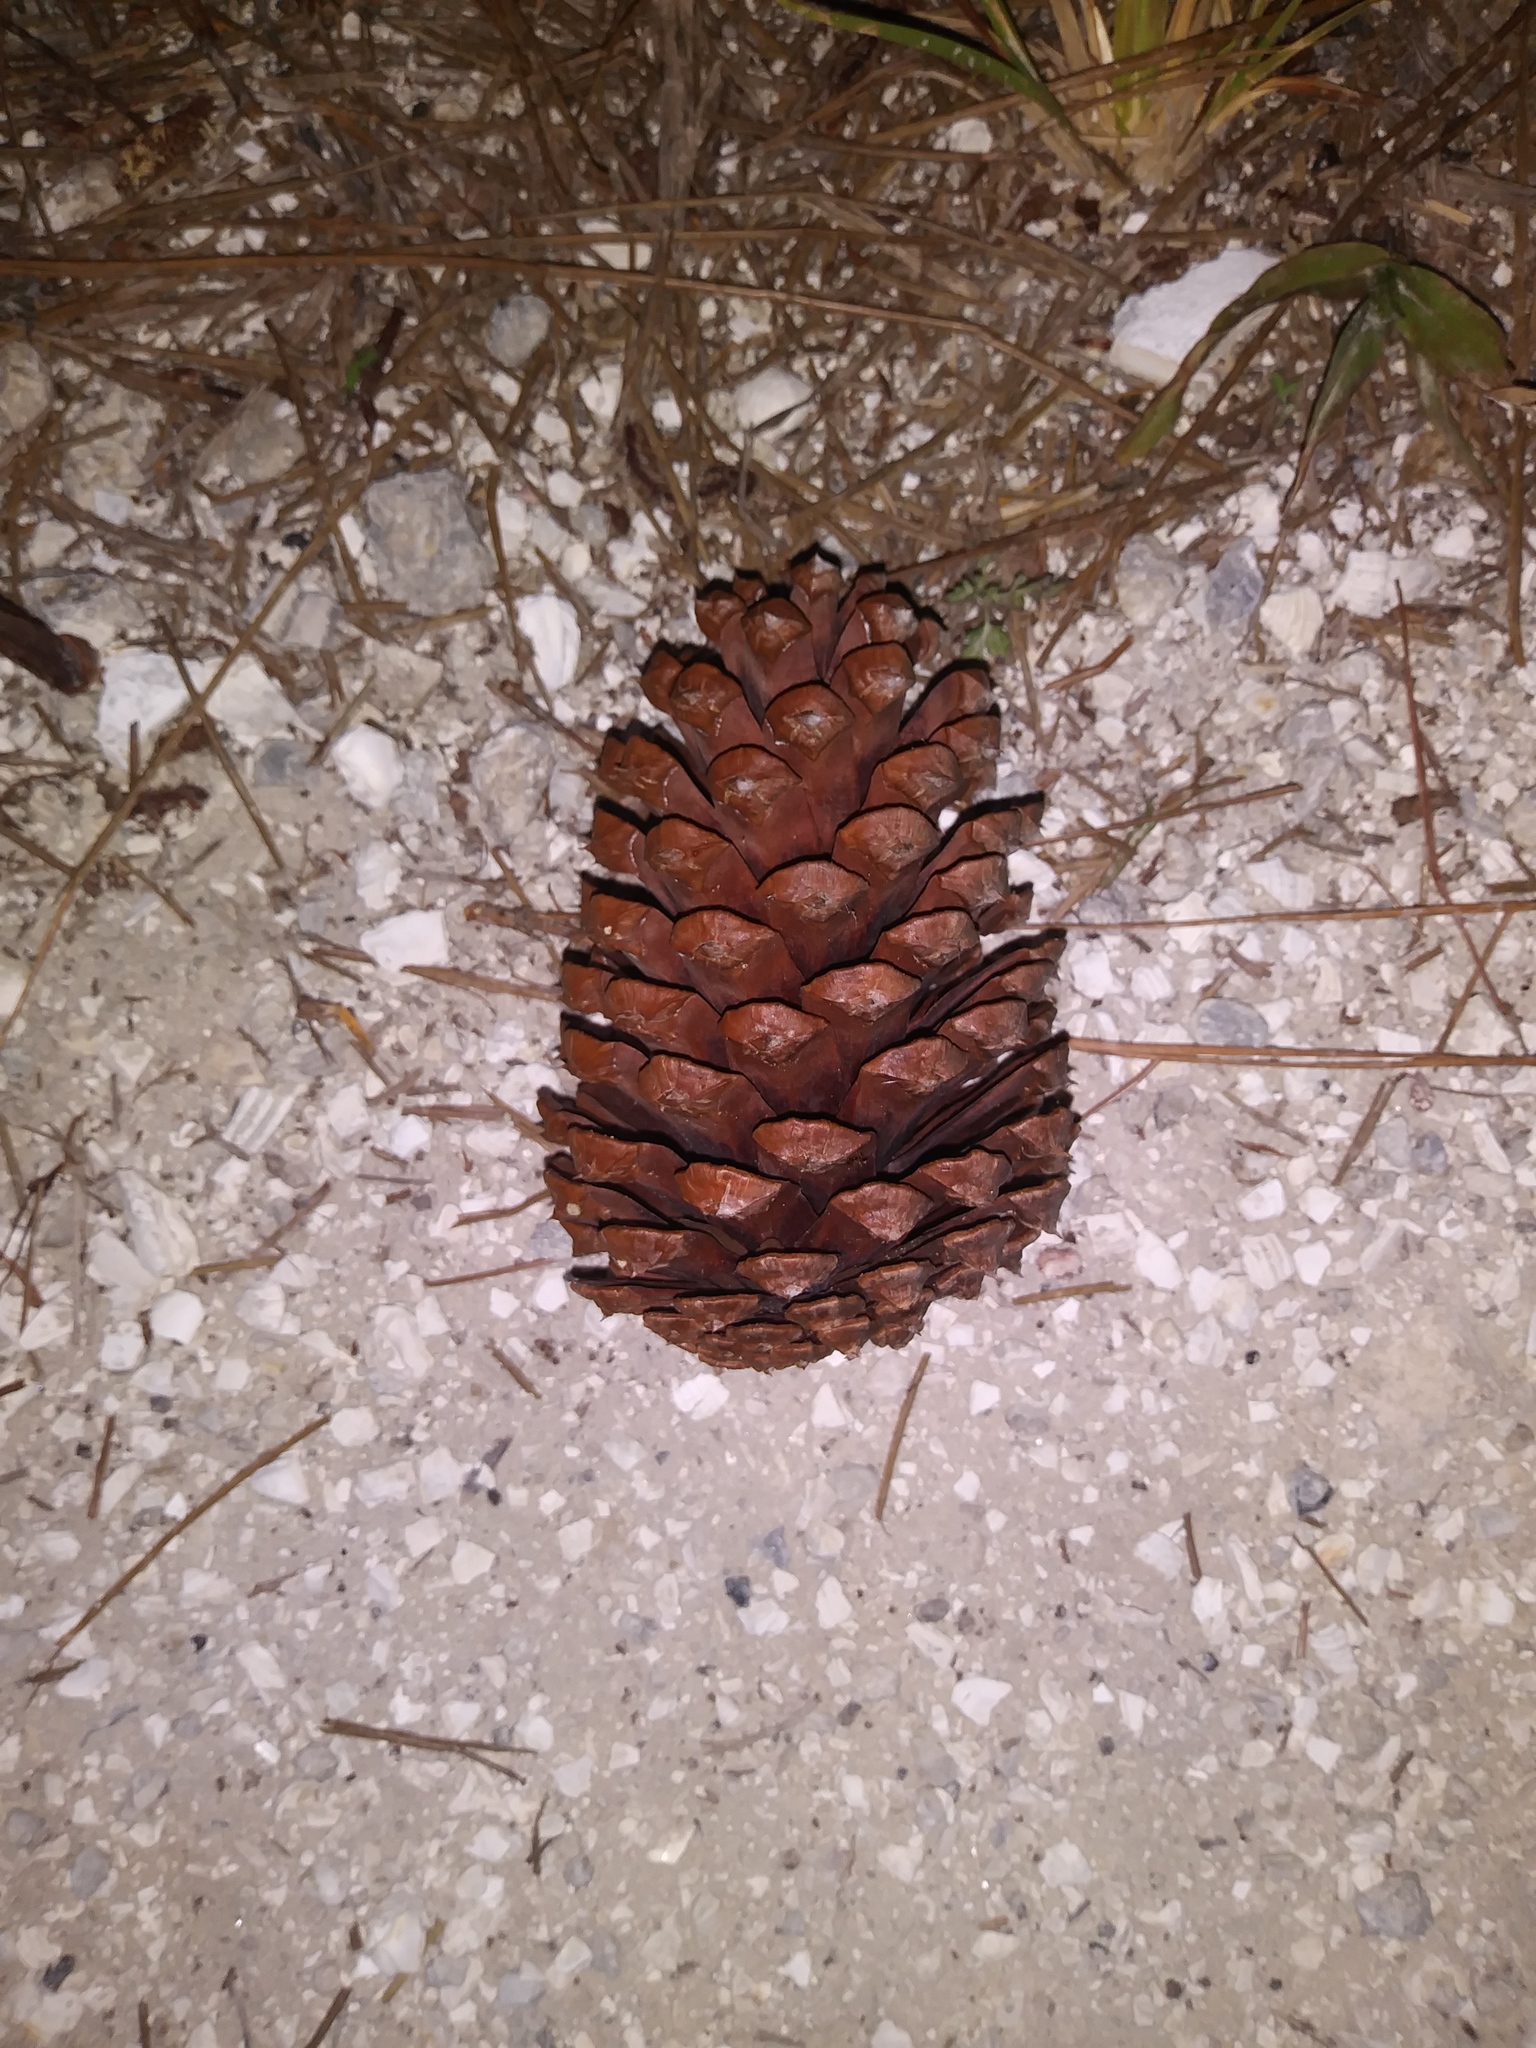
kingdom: Plantae
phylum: Tracheophyta
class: Pinopsida
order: Pinales
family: Pinaceae
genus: Pinus
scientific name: Pinus elliottii
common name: Slash pine
